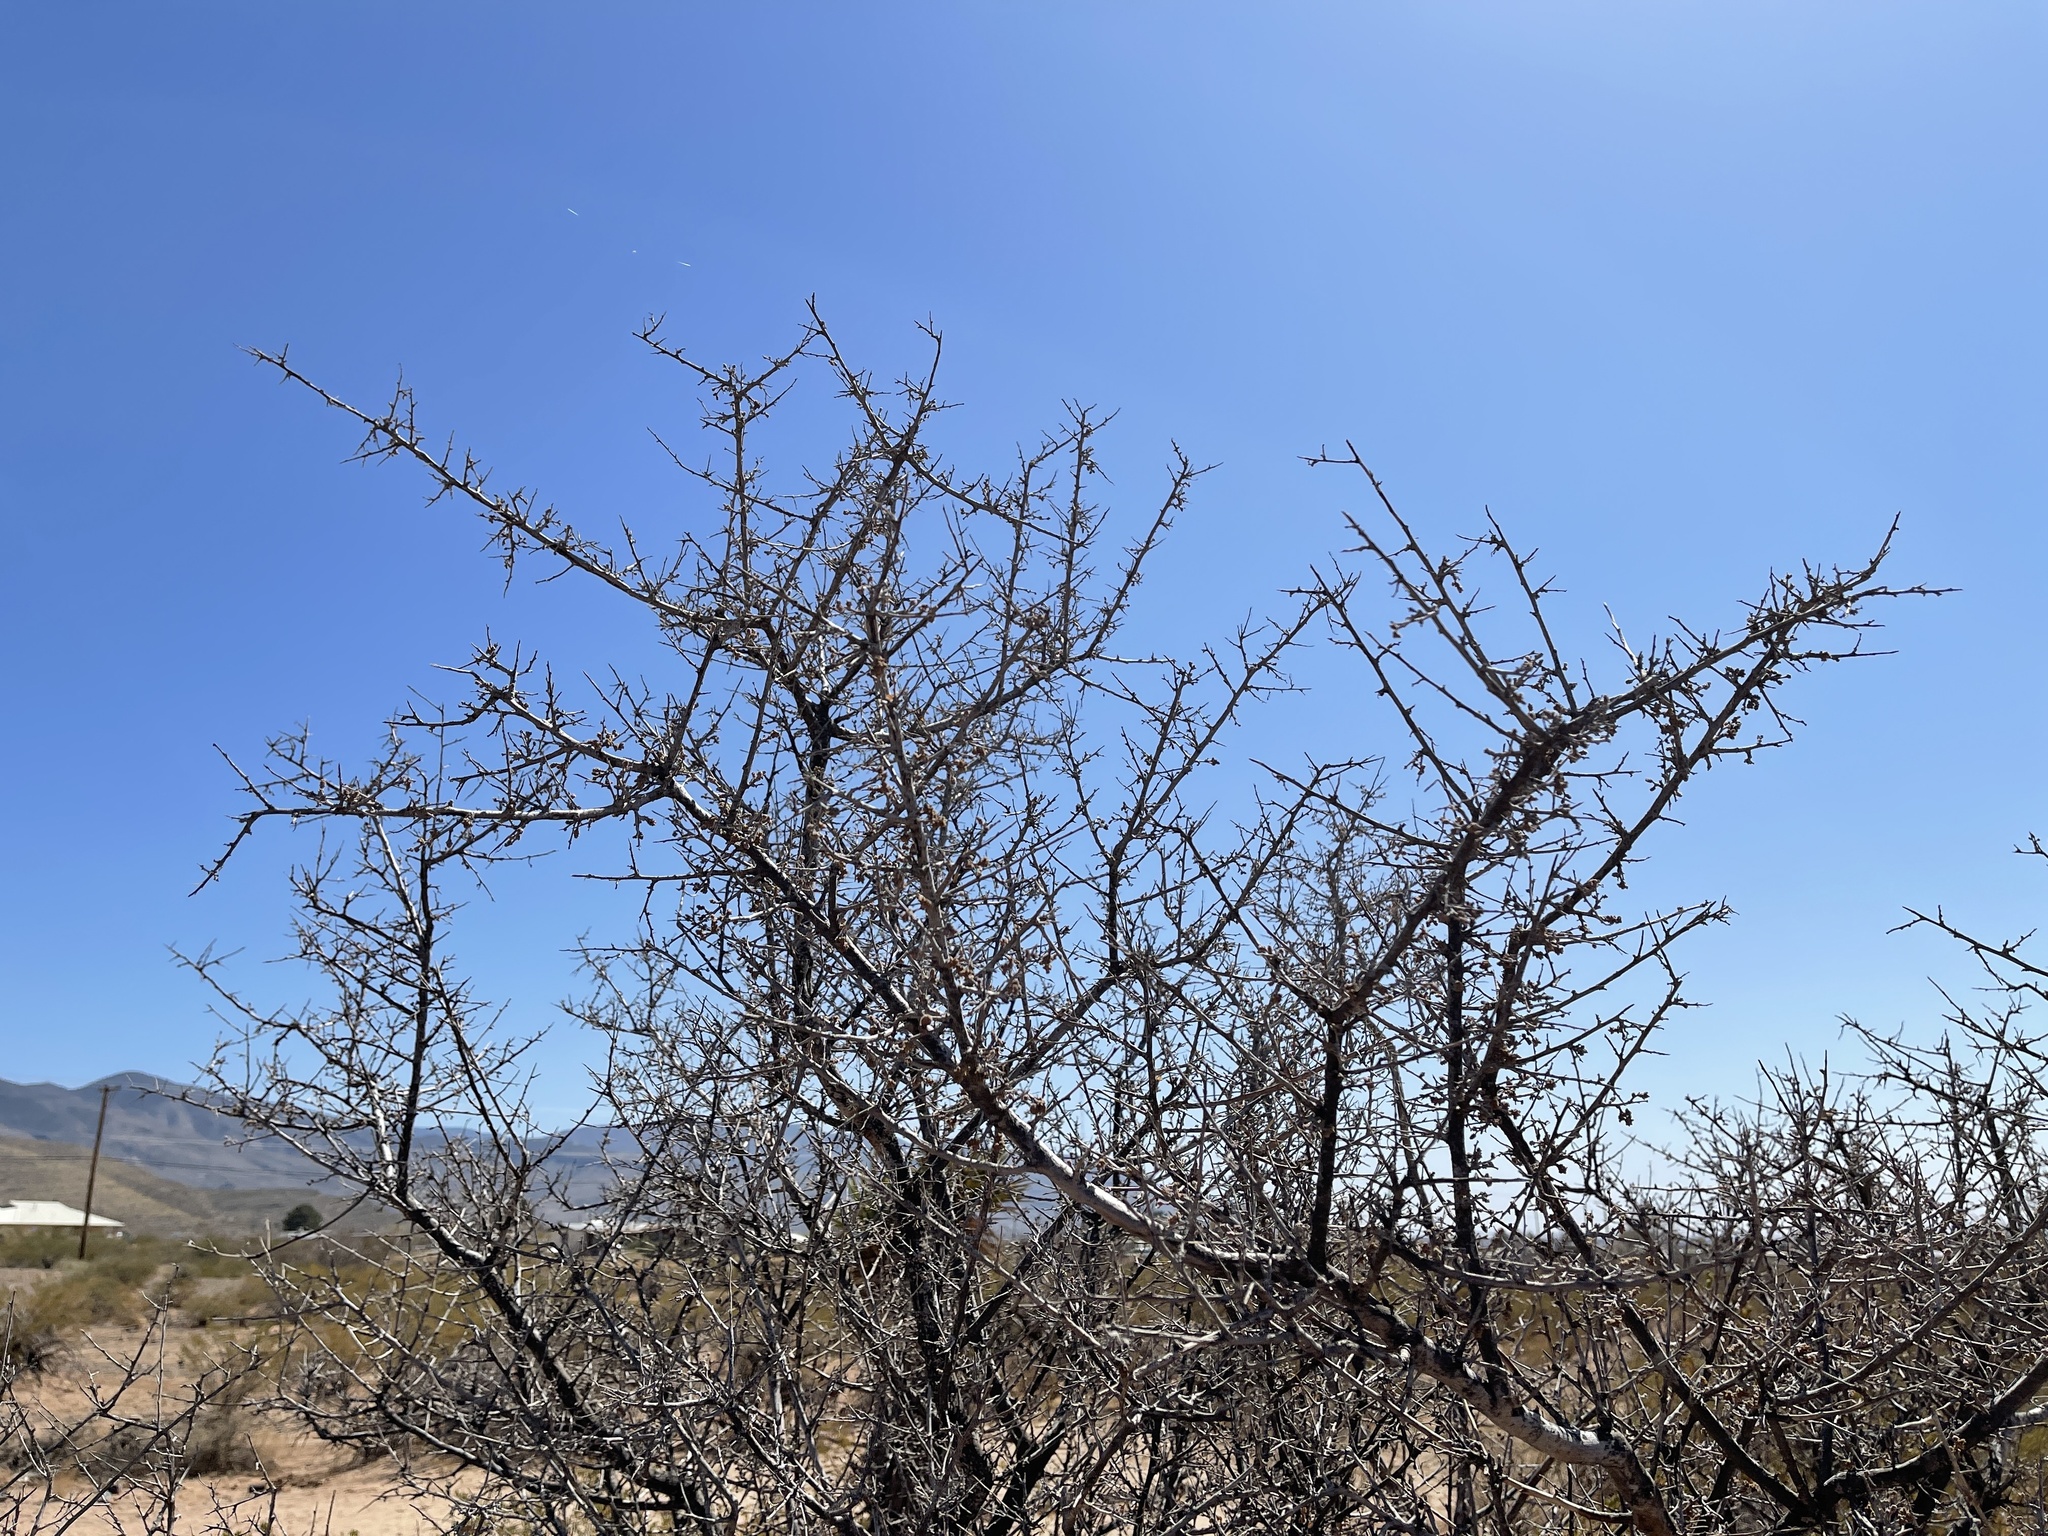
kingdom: Plantae
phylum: Tracheophyta
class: Magnoliopsida
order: Sapindales
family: Anacardiaceae
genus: Rhus
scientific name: Rhus microphylla
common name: Desert sumac
